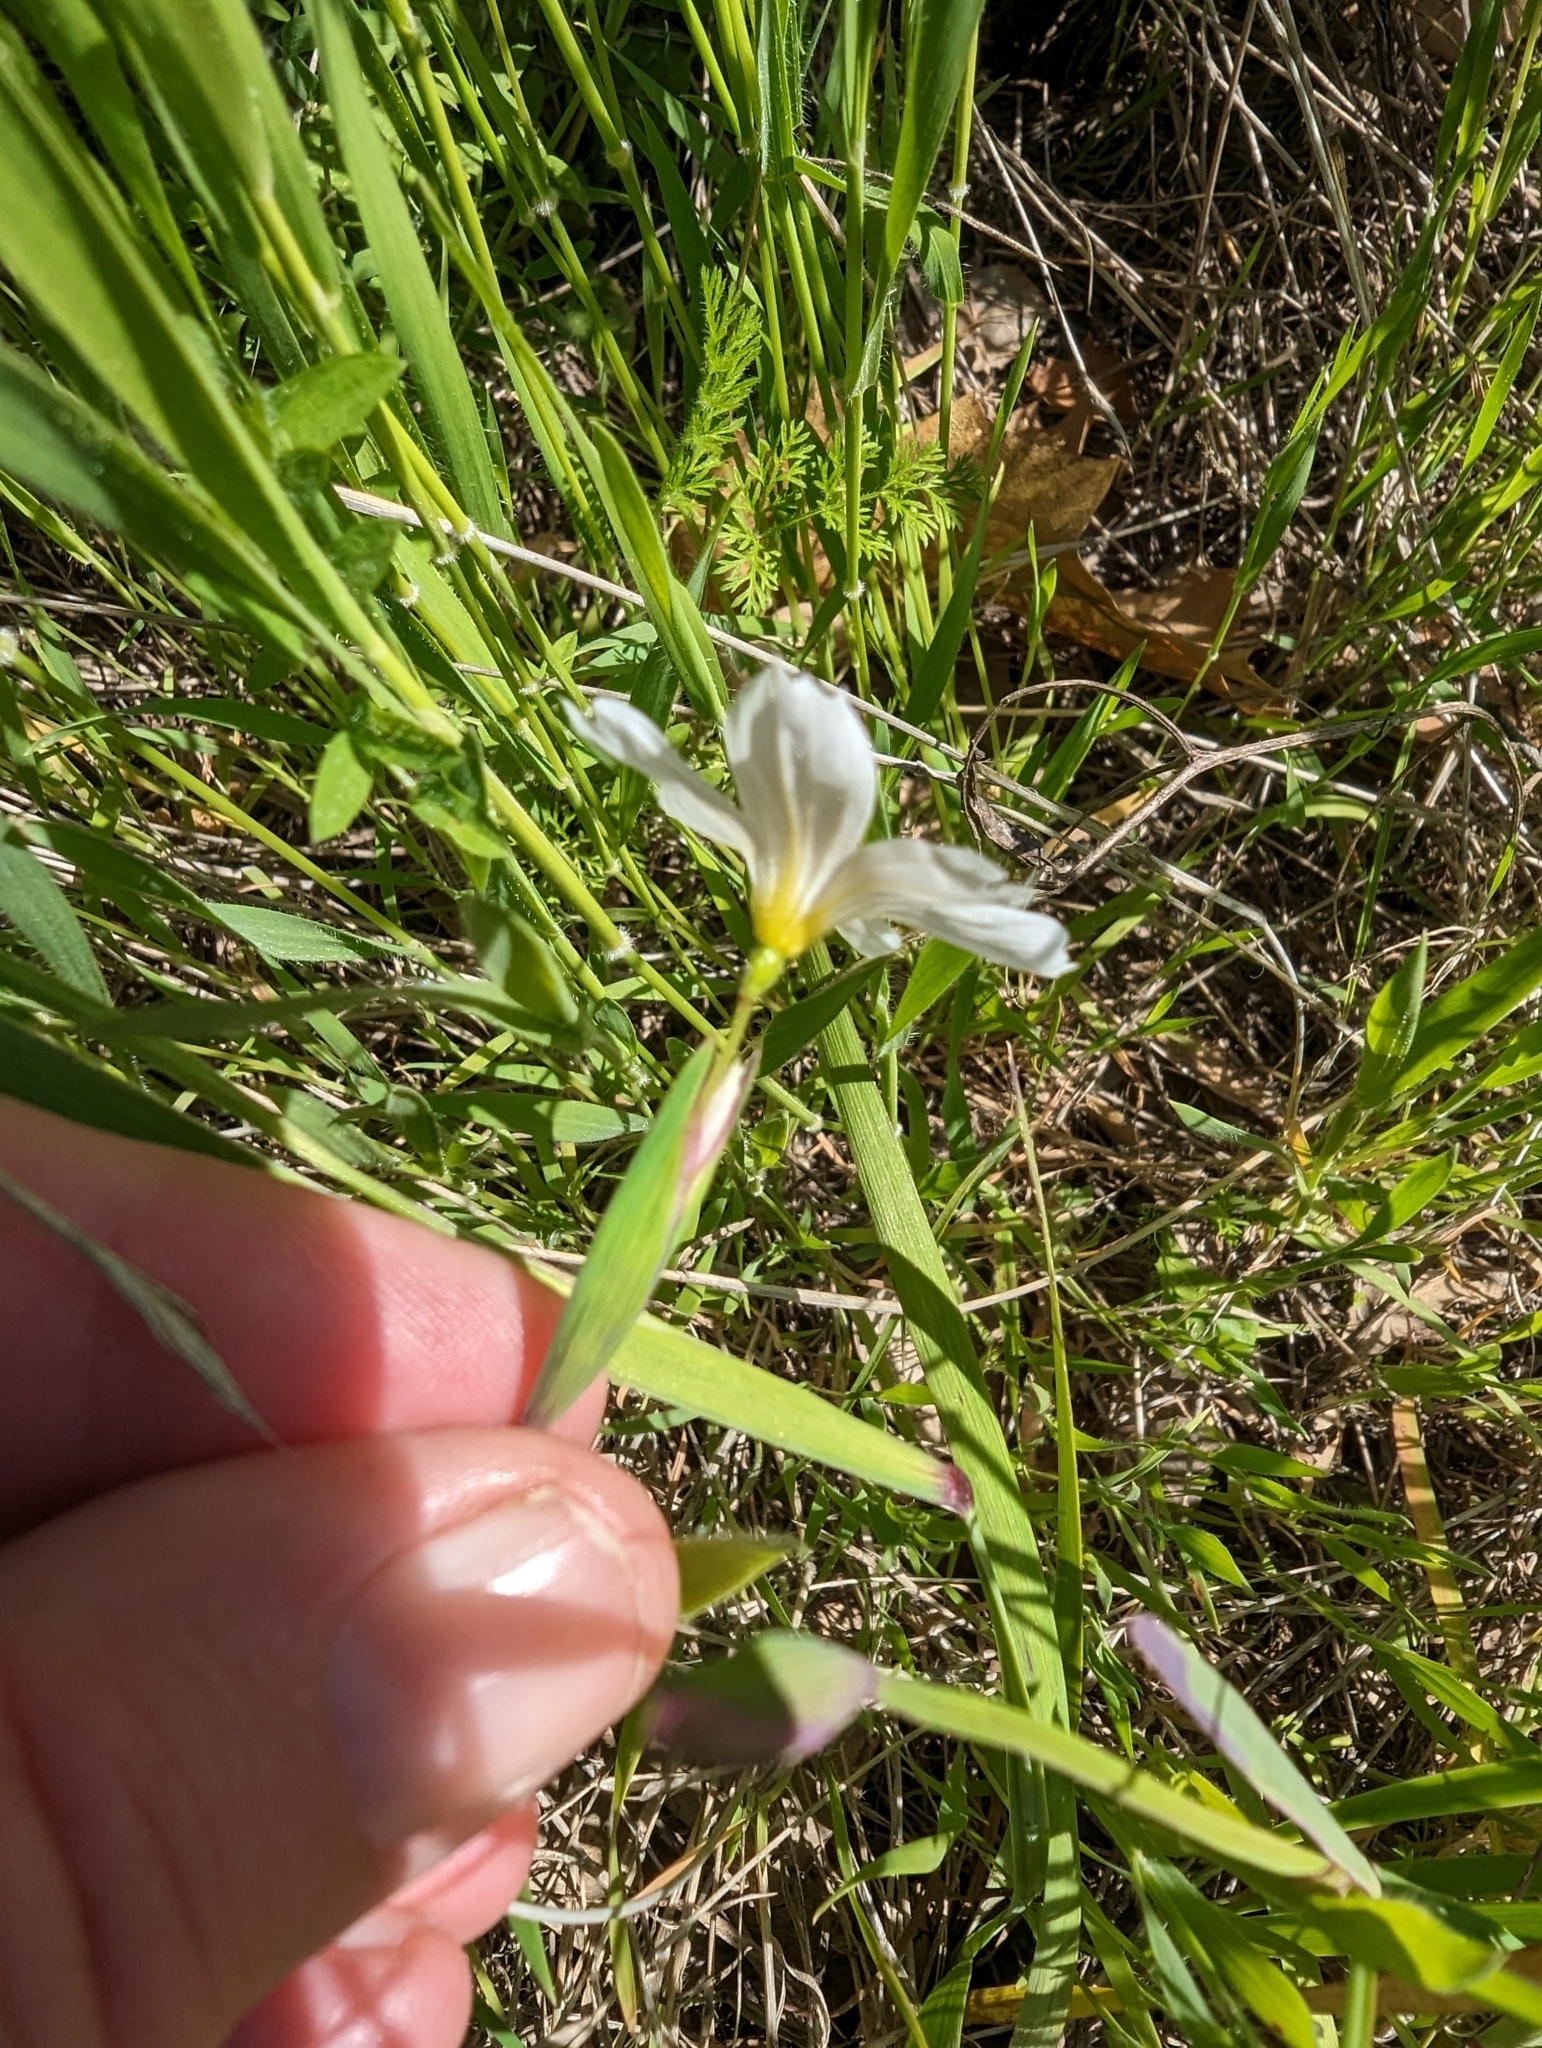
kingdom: Plantae
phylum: Tracheophyta
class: Liliopsida
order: Asparagales
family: Iridaceae
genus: Sisyrinchium
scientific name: Sisyrinchium bellum
